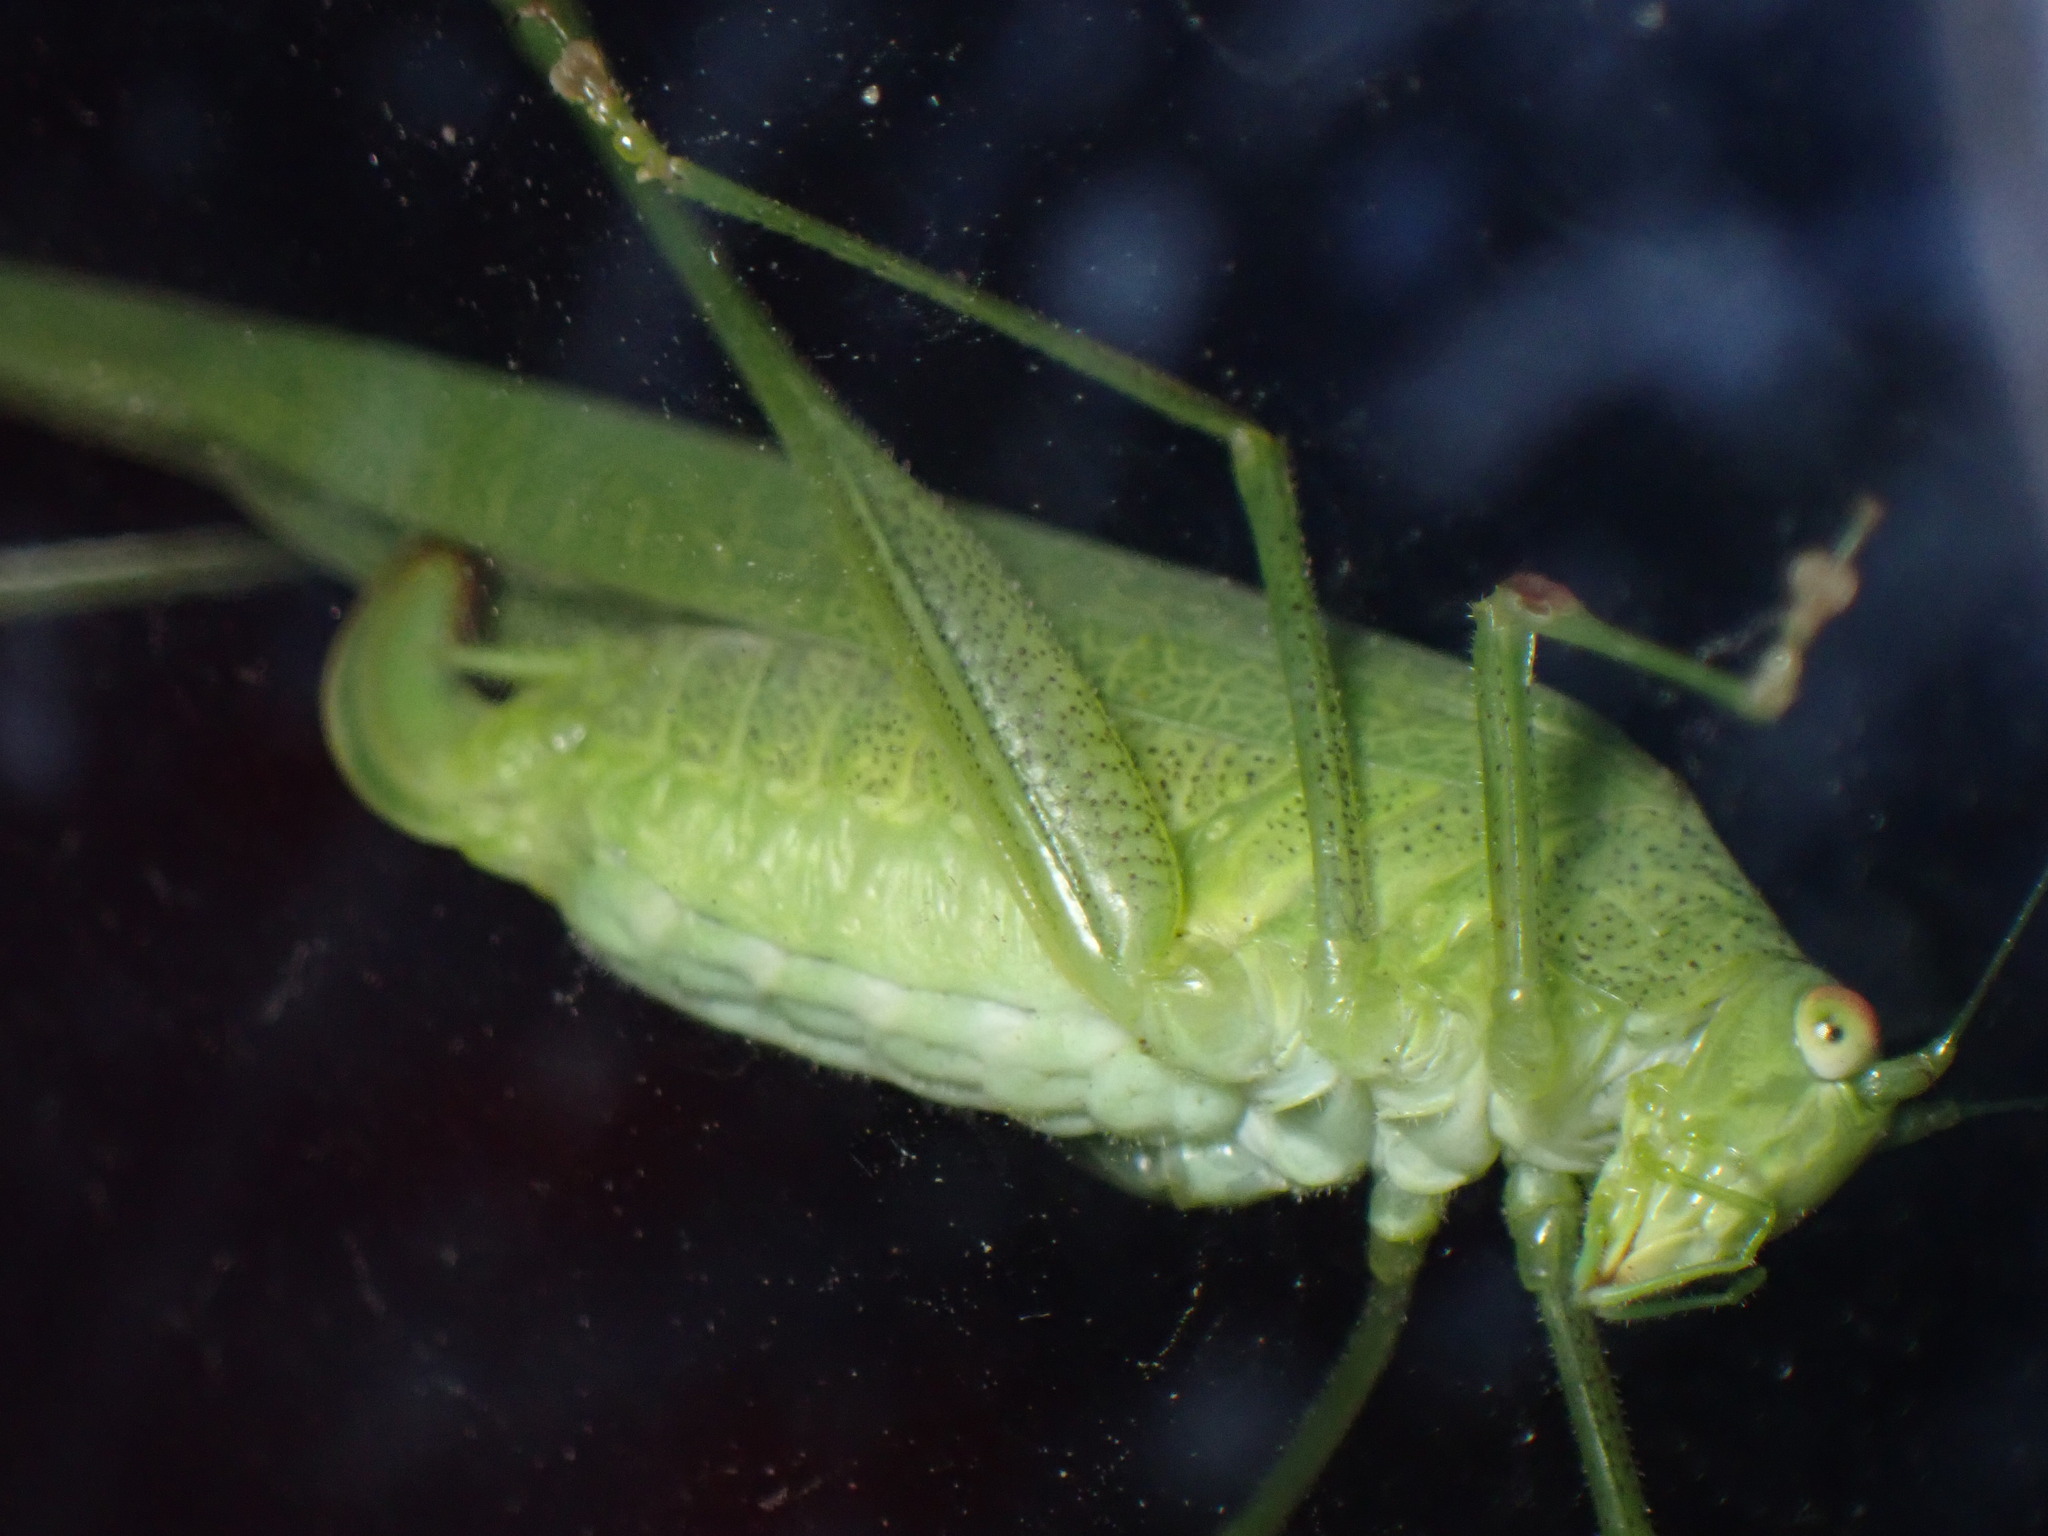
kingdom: Animalia
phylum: Arthropoda
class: Insecta
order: Orthoptera
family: Tettigoniidae
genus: Phaneroptera
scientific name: Phaneroptera nana
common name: Southern sickle bush-cricket
